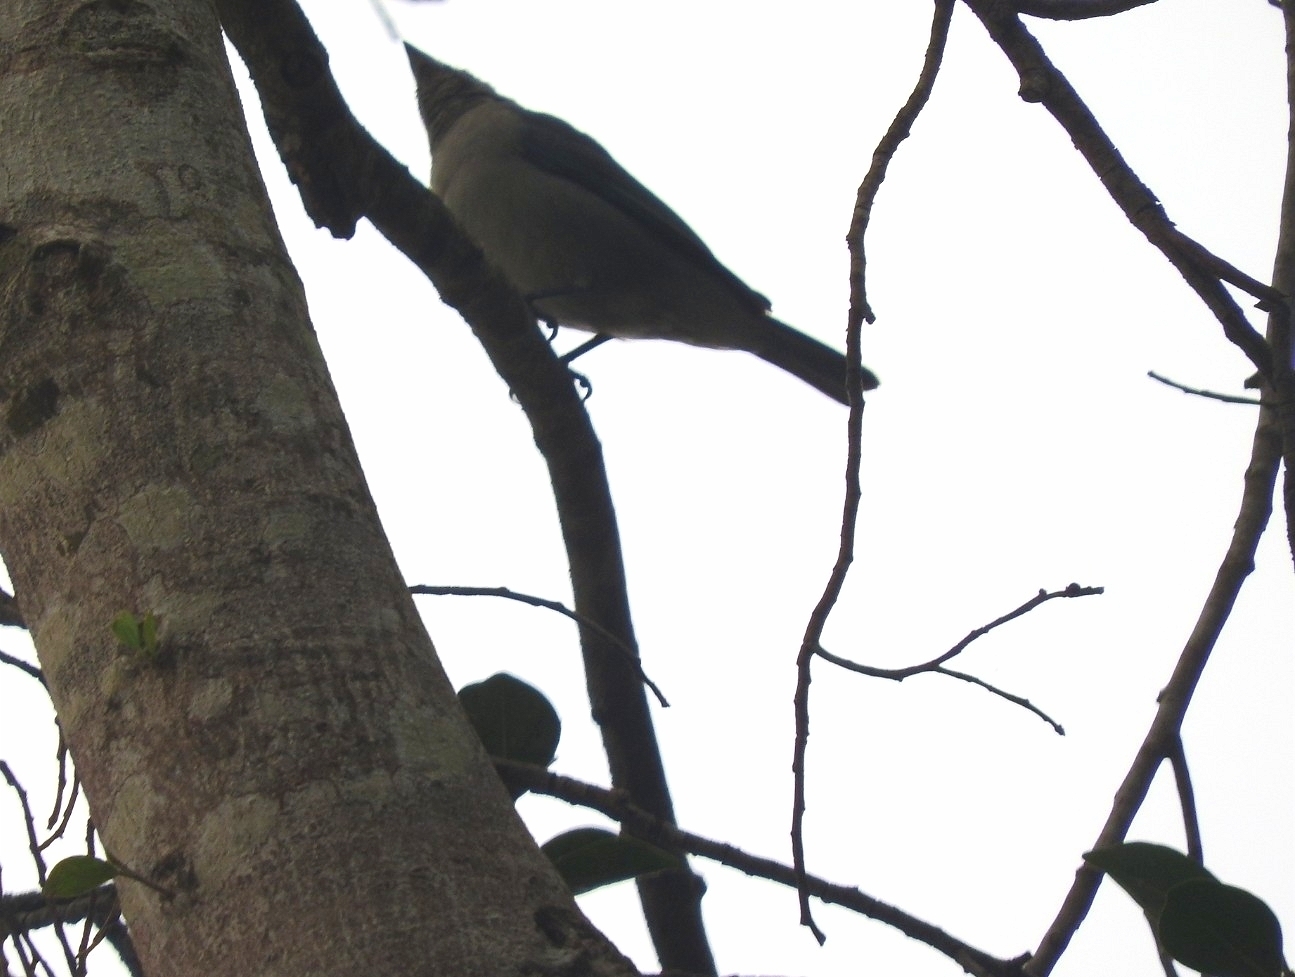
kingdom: Animalia
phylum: Chordata
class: Aves
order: Passeriformes
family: Thraupidae
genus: Thraupis
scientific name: Thraupis episcopus
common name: Blue-grey tanager
